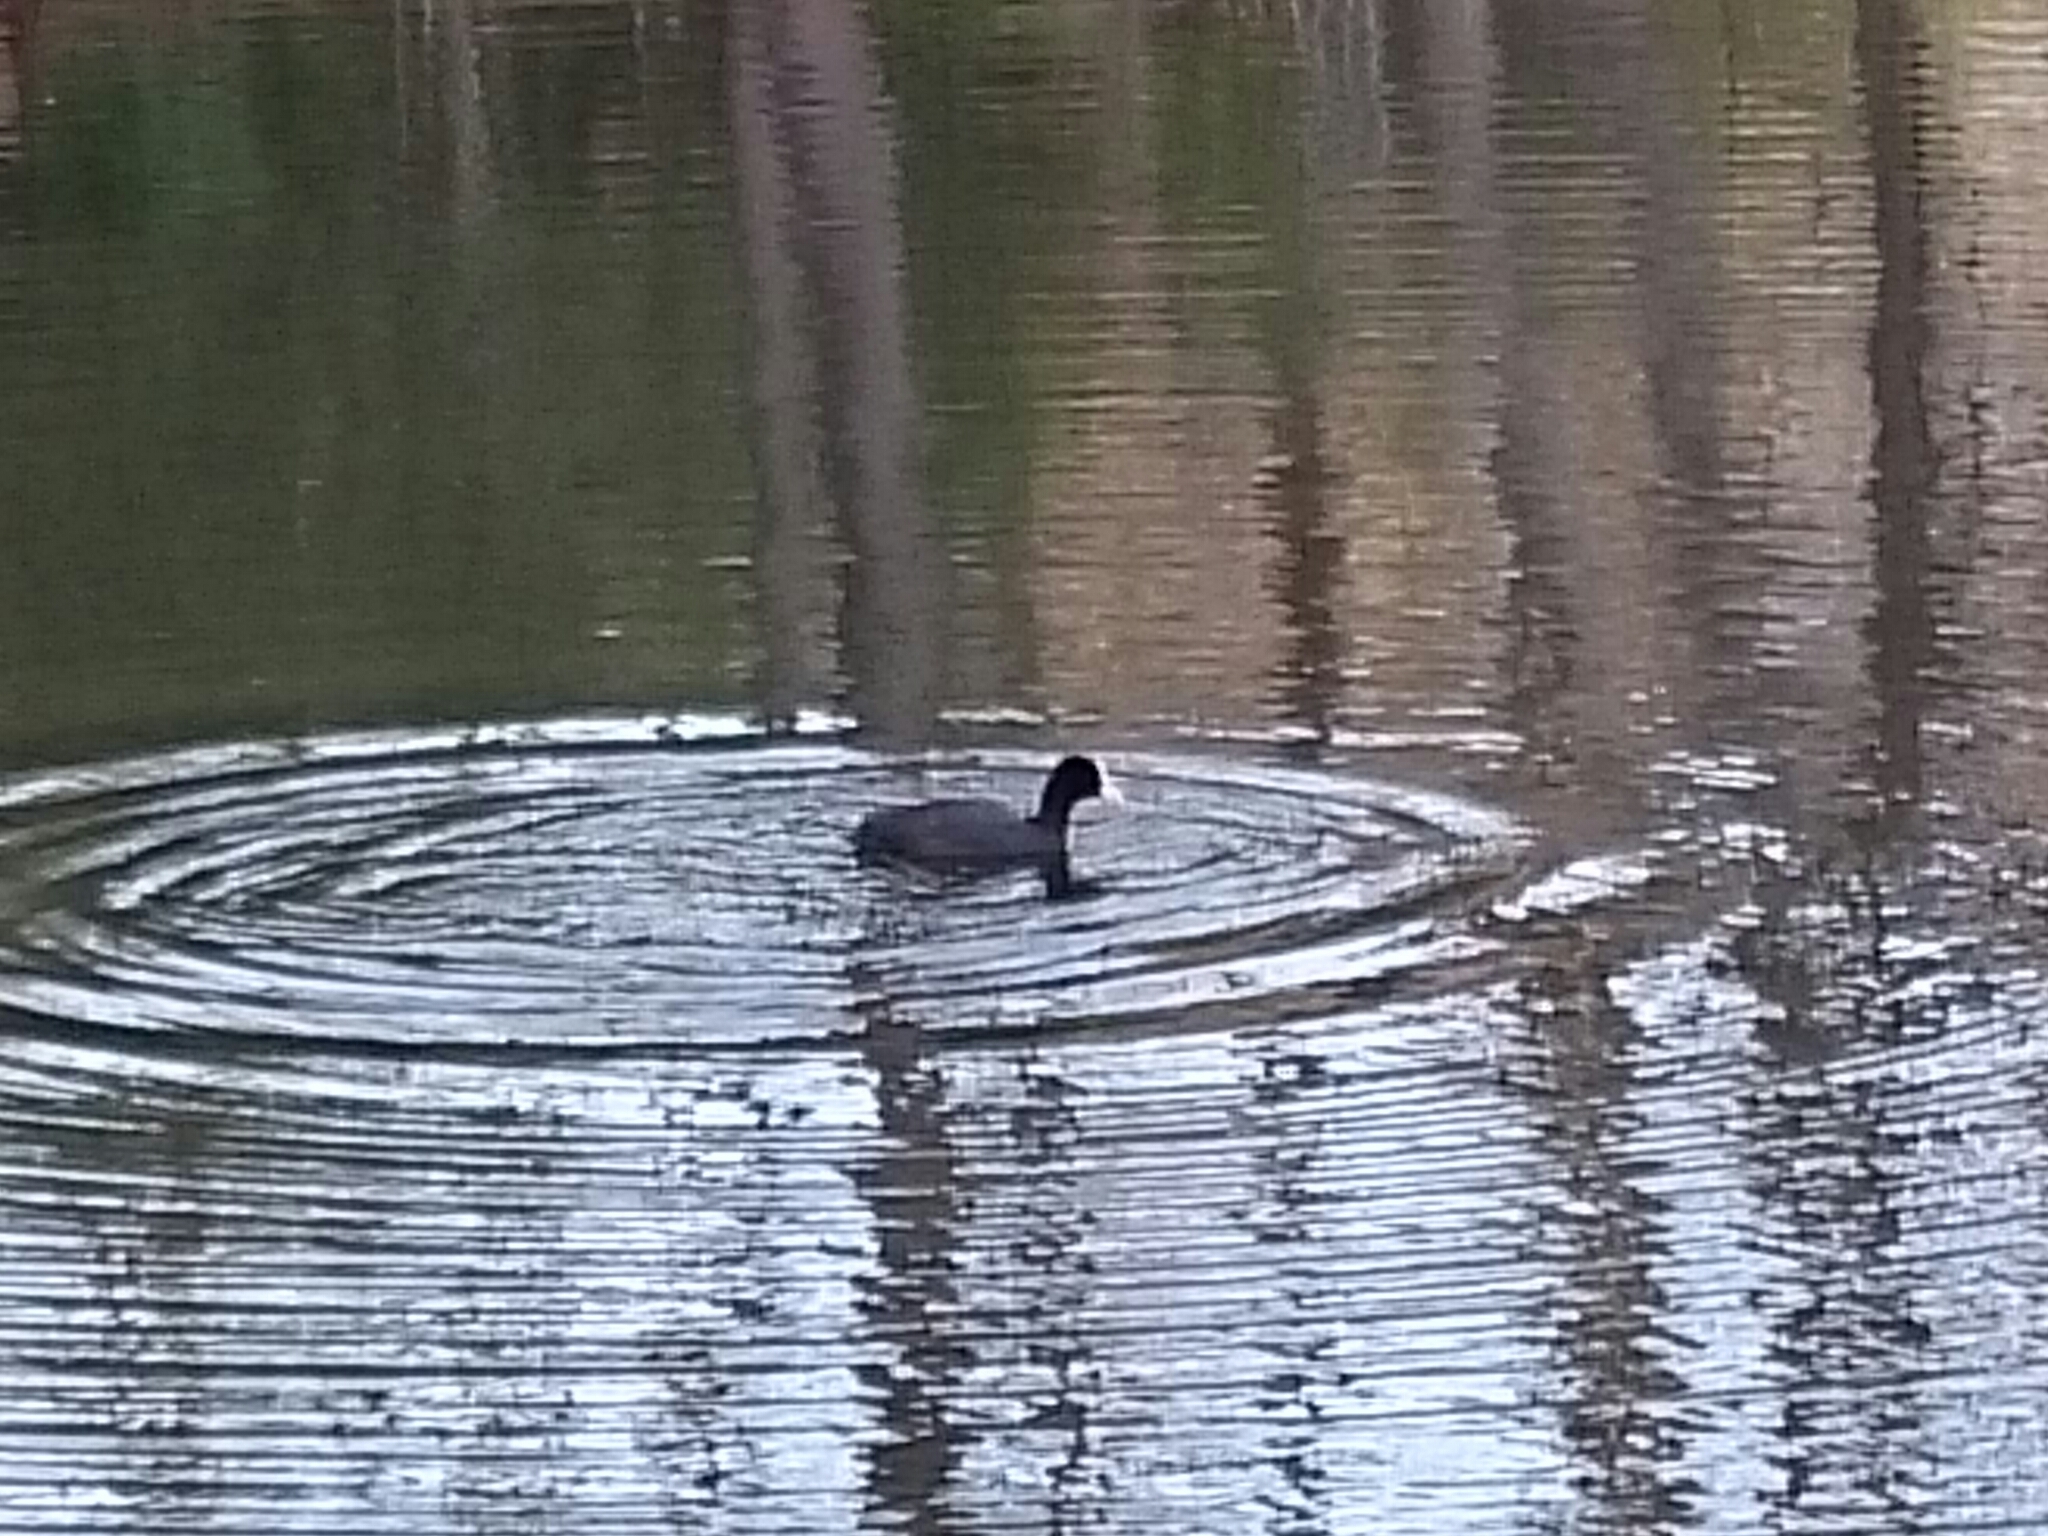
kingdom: Animalia
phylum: Chordata
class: Aves
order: Gruiformes
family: Rallidae
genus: Fulica
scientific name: Fulica atra
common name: Eurasian coot
